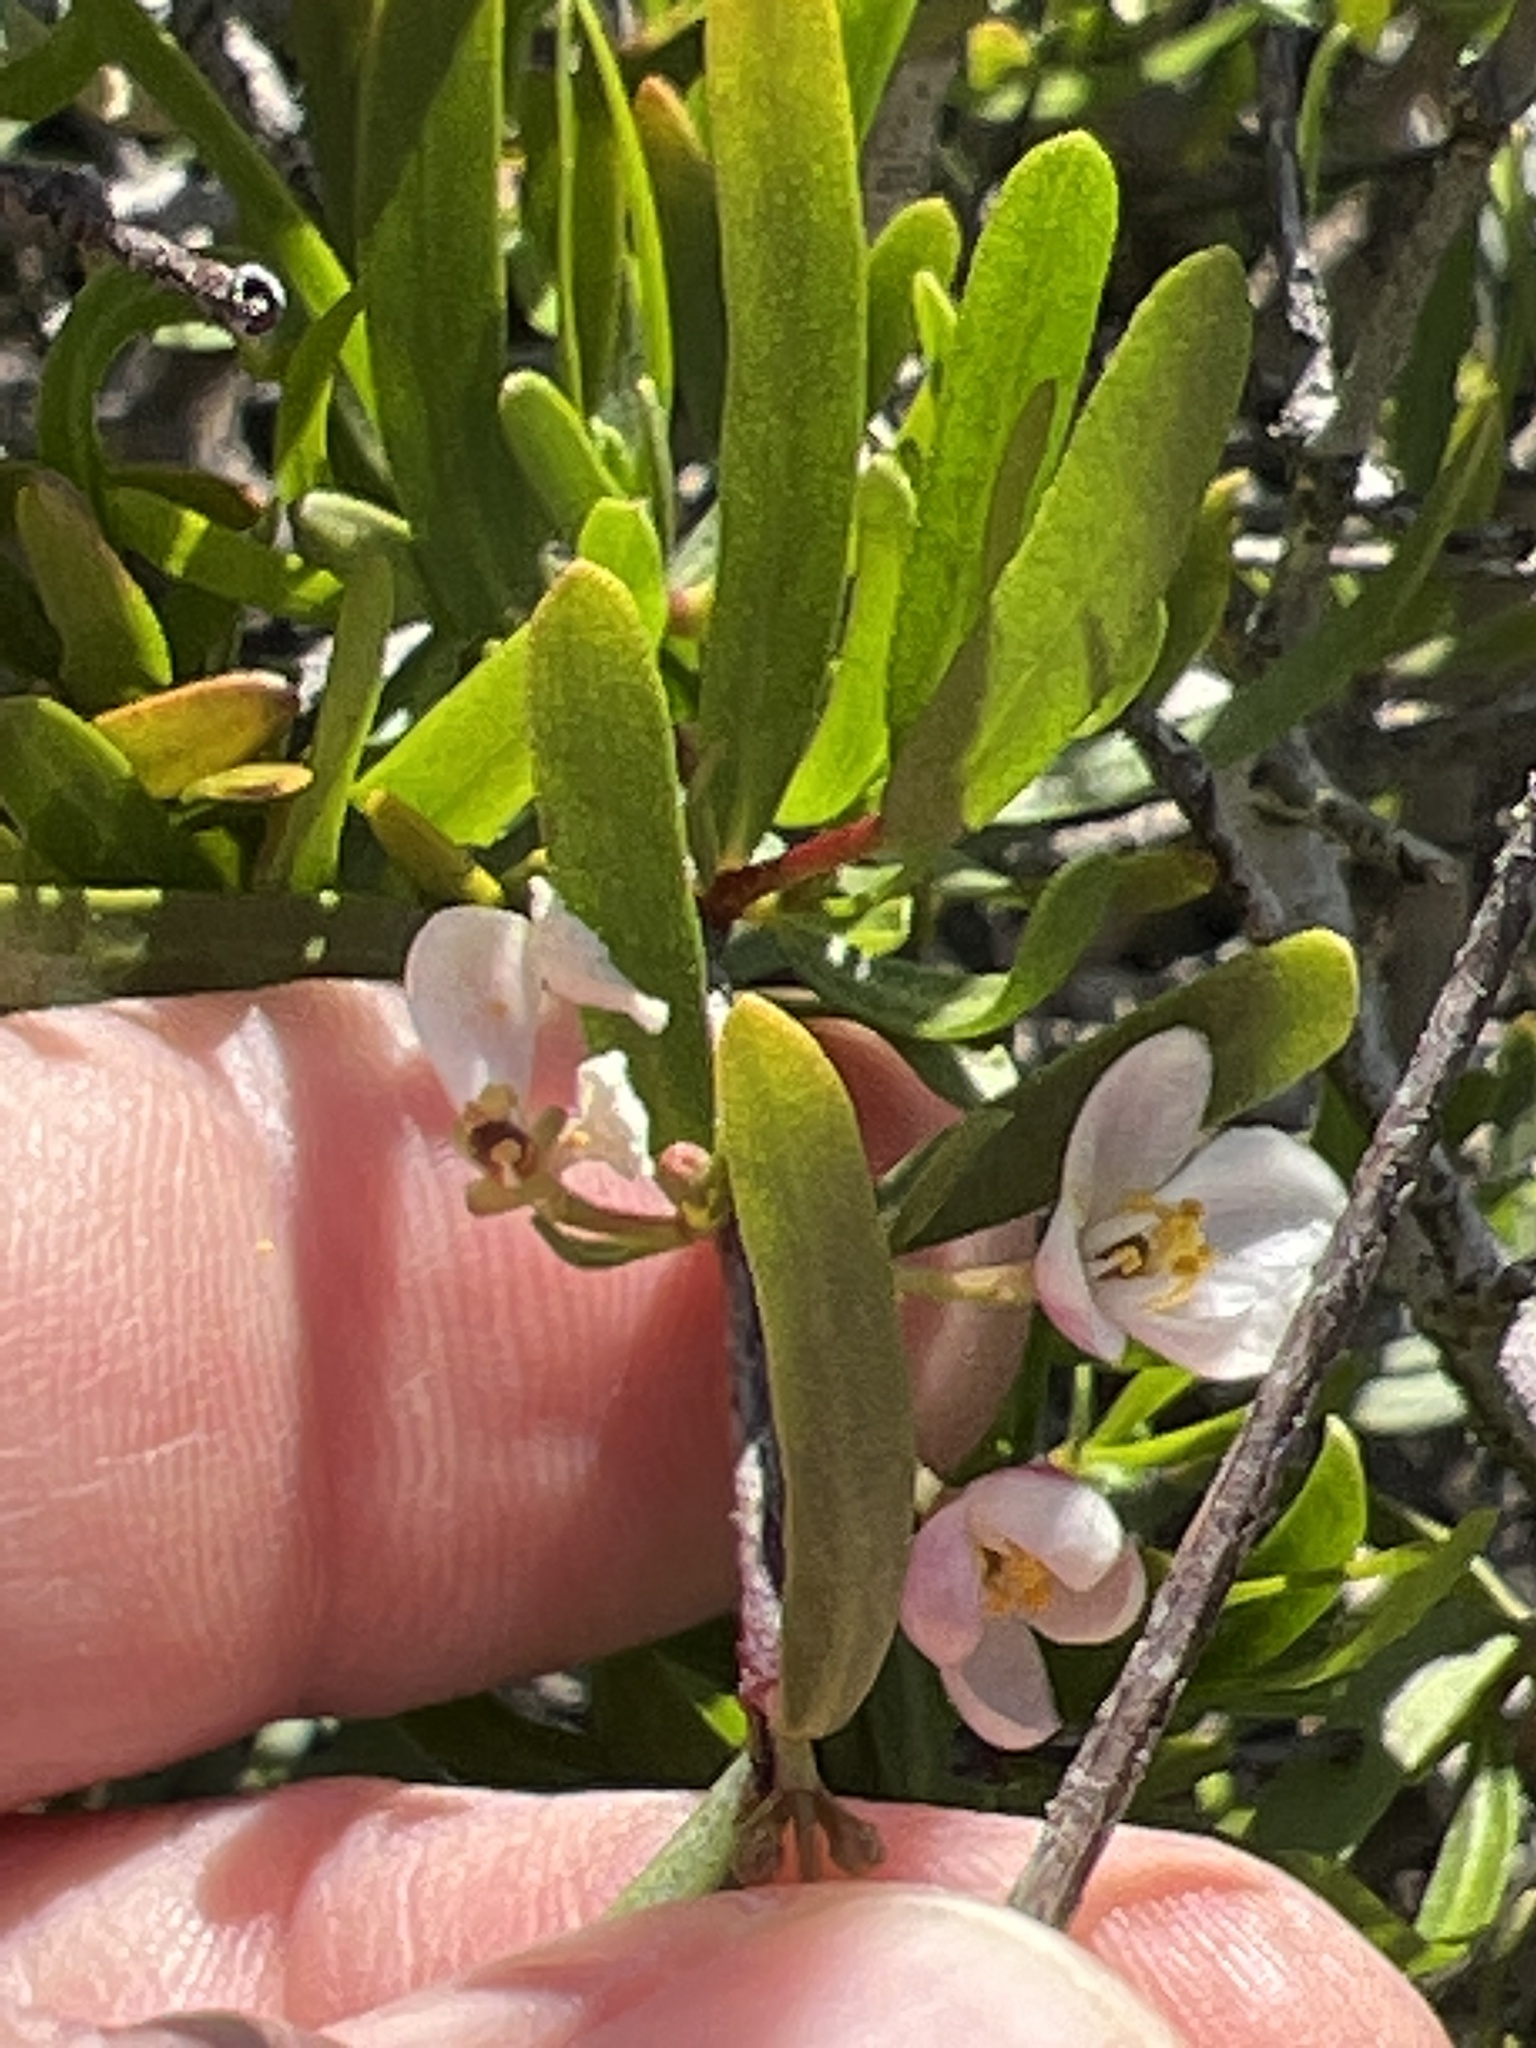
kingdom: Plantae
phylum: Tracheophyta
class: Magnoliopsida
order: Sapindales
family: Rutaceae
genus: Cneoridium
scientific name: Cneoridium dumosum
